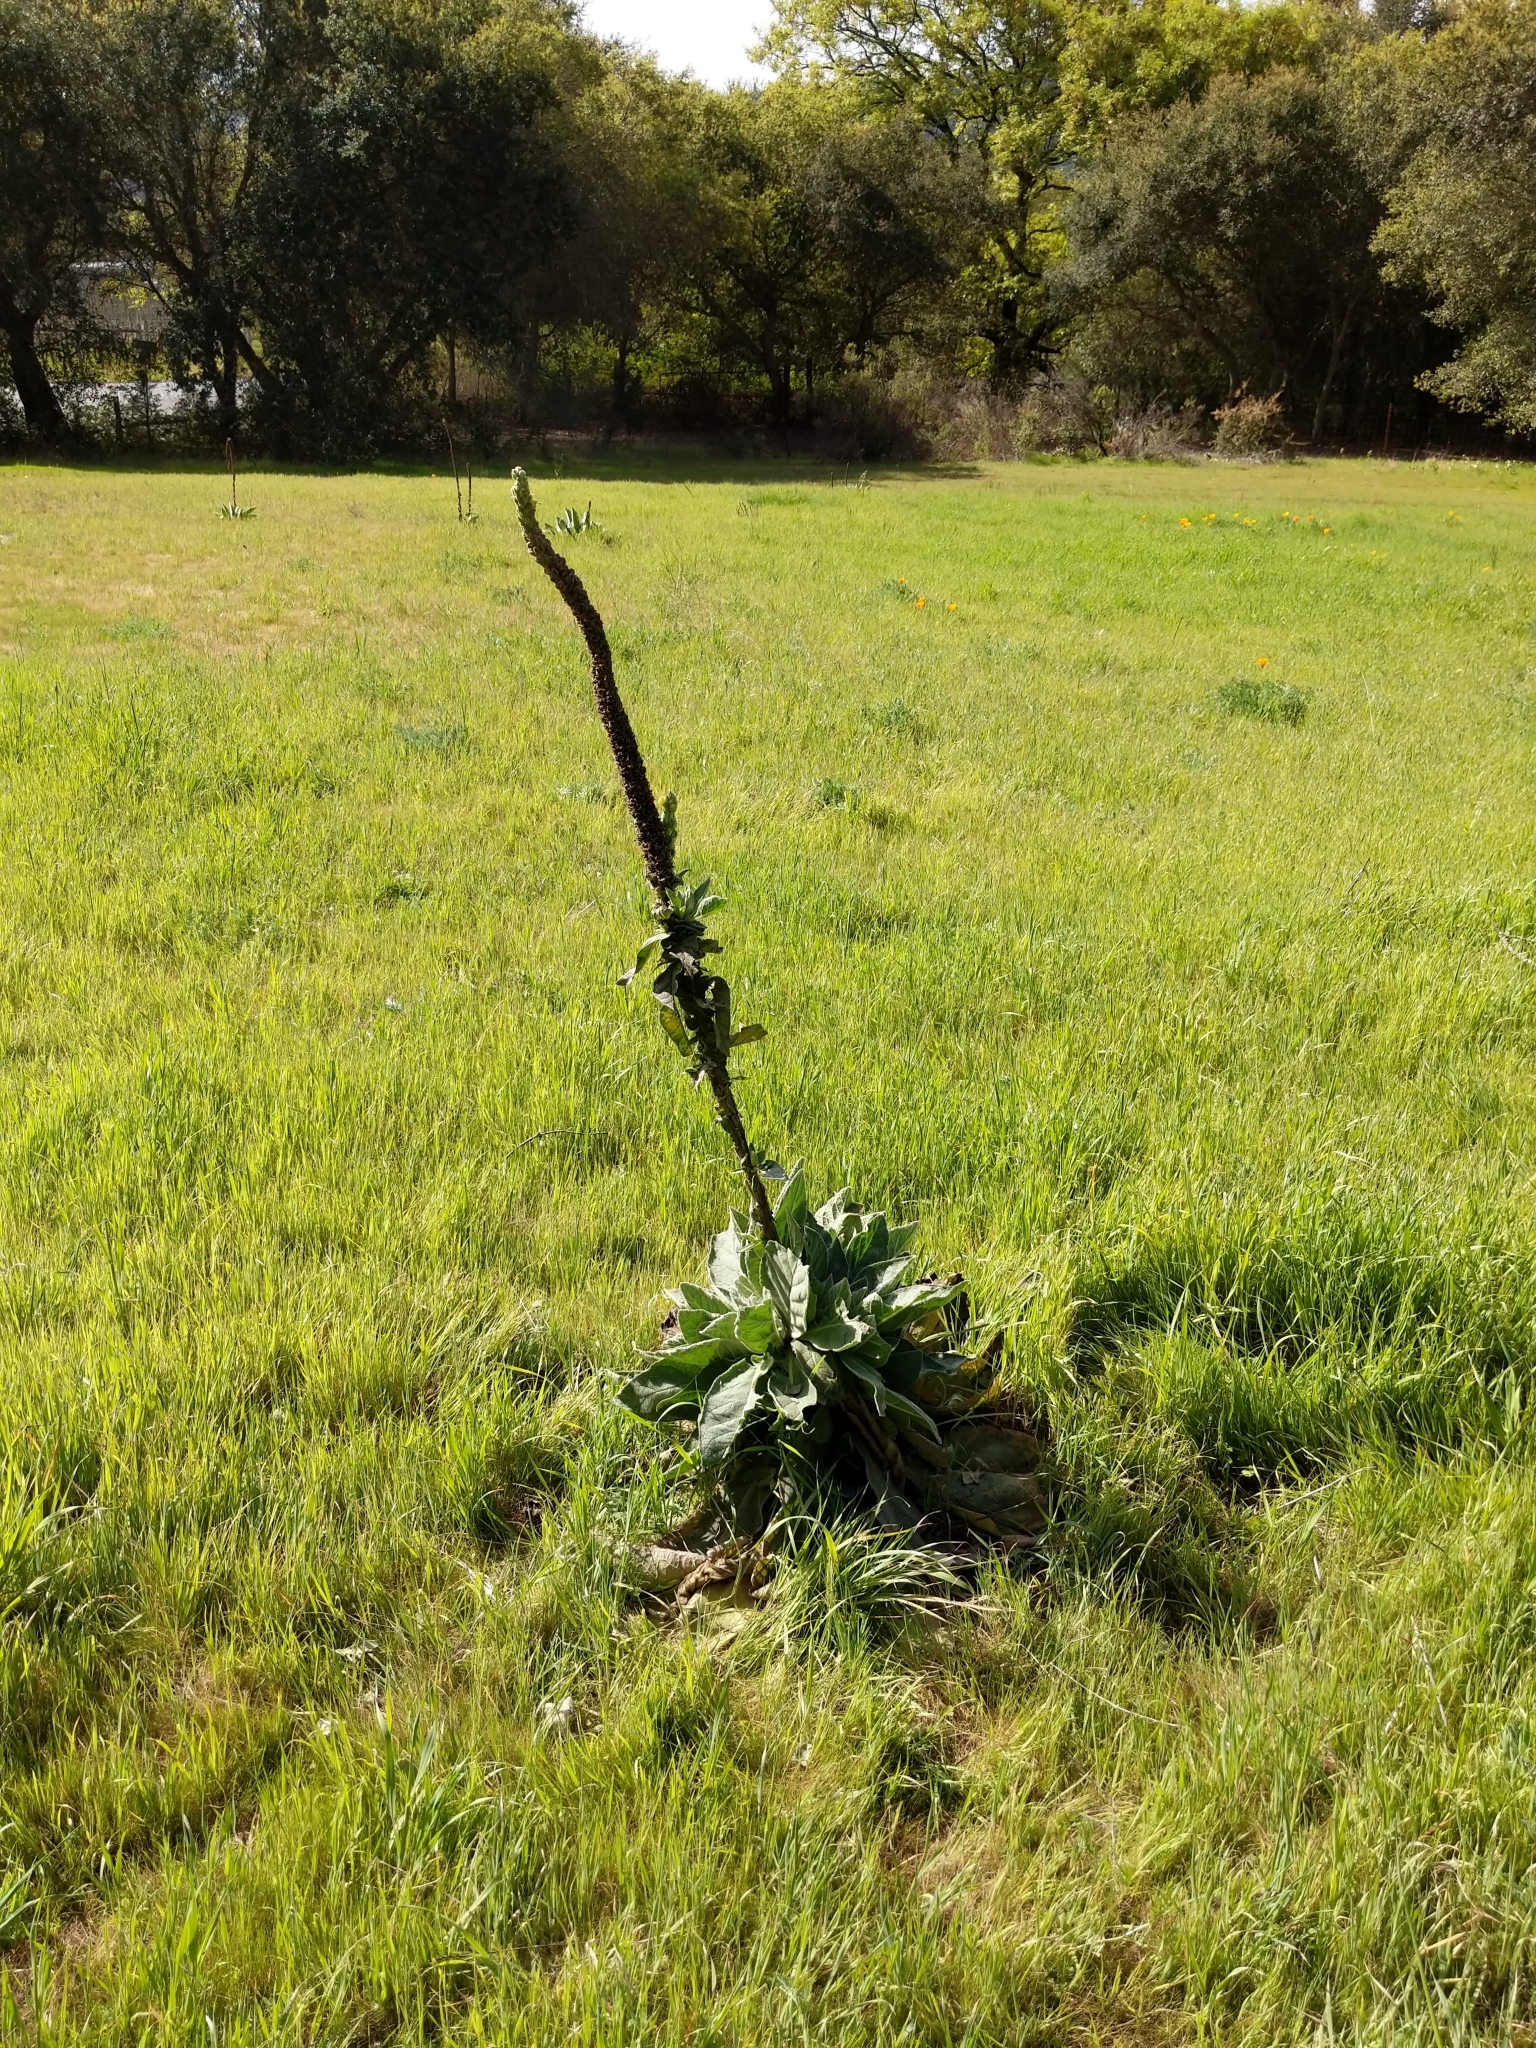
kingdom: Plantae
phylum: Tracheophyta
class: Magnoliopsida
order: Lamiales
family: Scrophulariaceae
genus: Verbascum
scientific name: Verbascum thapsus
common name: Common mullein
